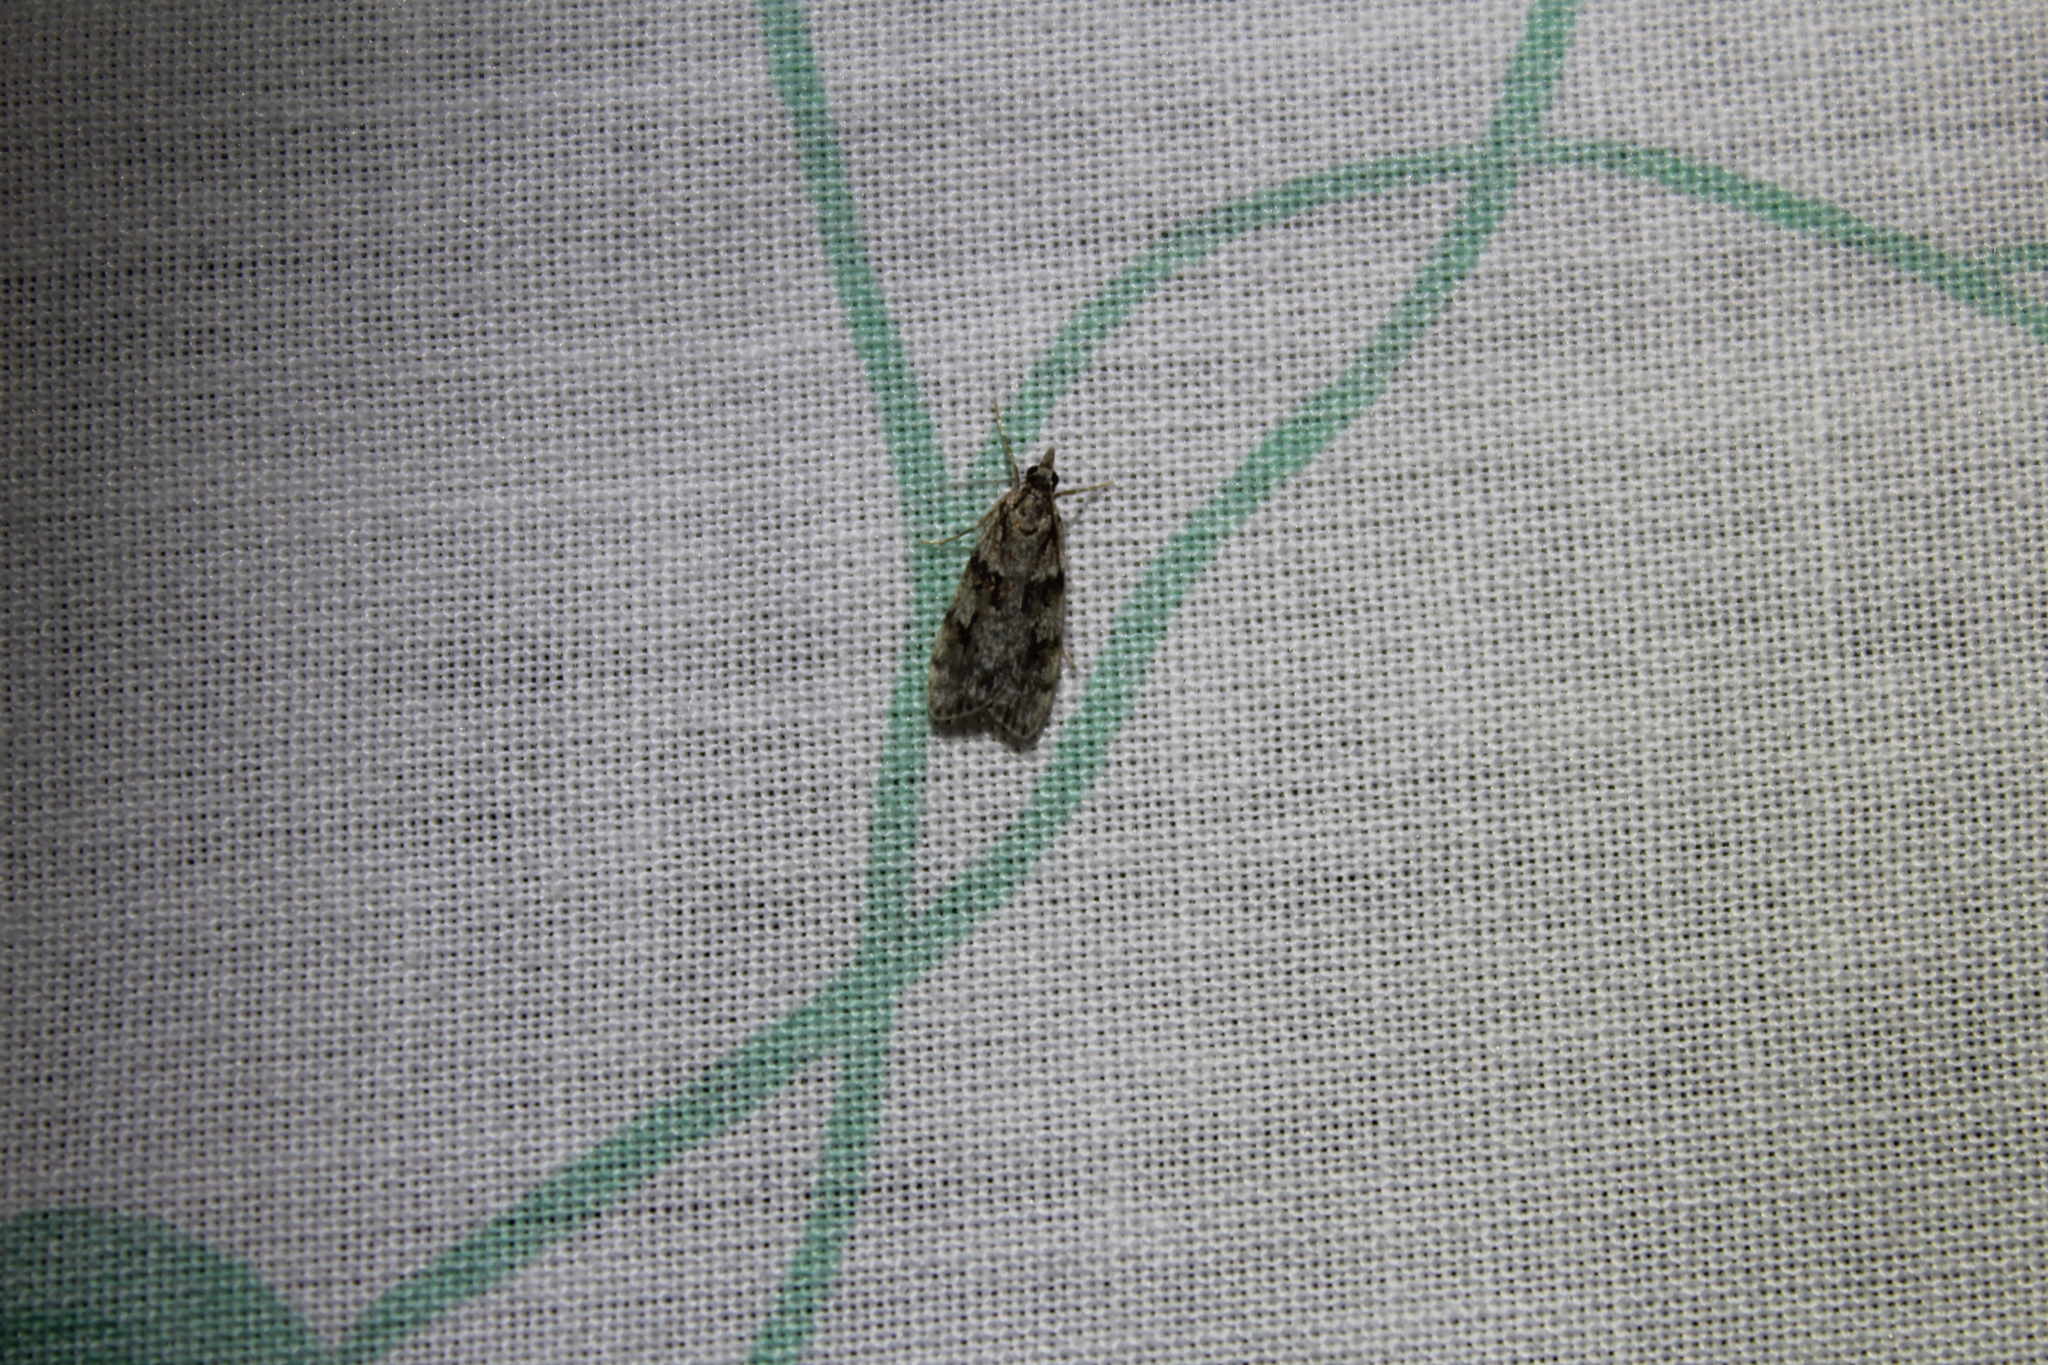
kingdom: Animalia
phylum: Arthropoda
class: Insecta
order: Lepidoptera
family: Crambidae
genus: Scoparia
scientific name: Scoparia biplagialis
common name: Double-striped scoparia moth
